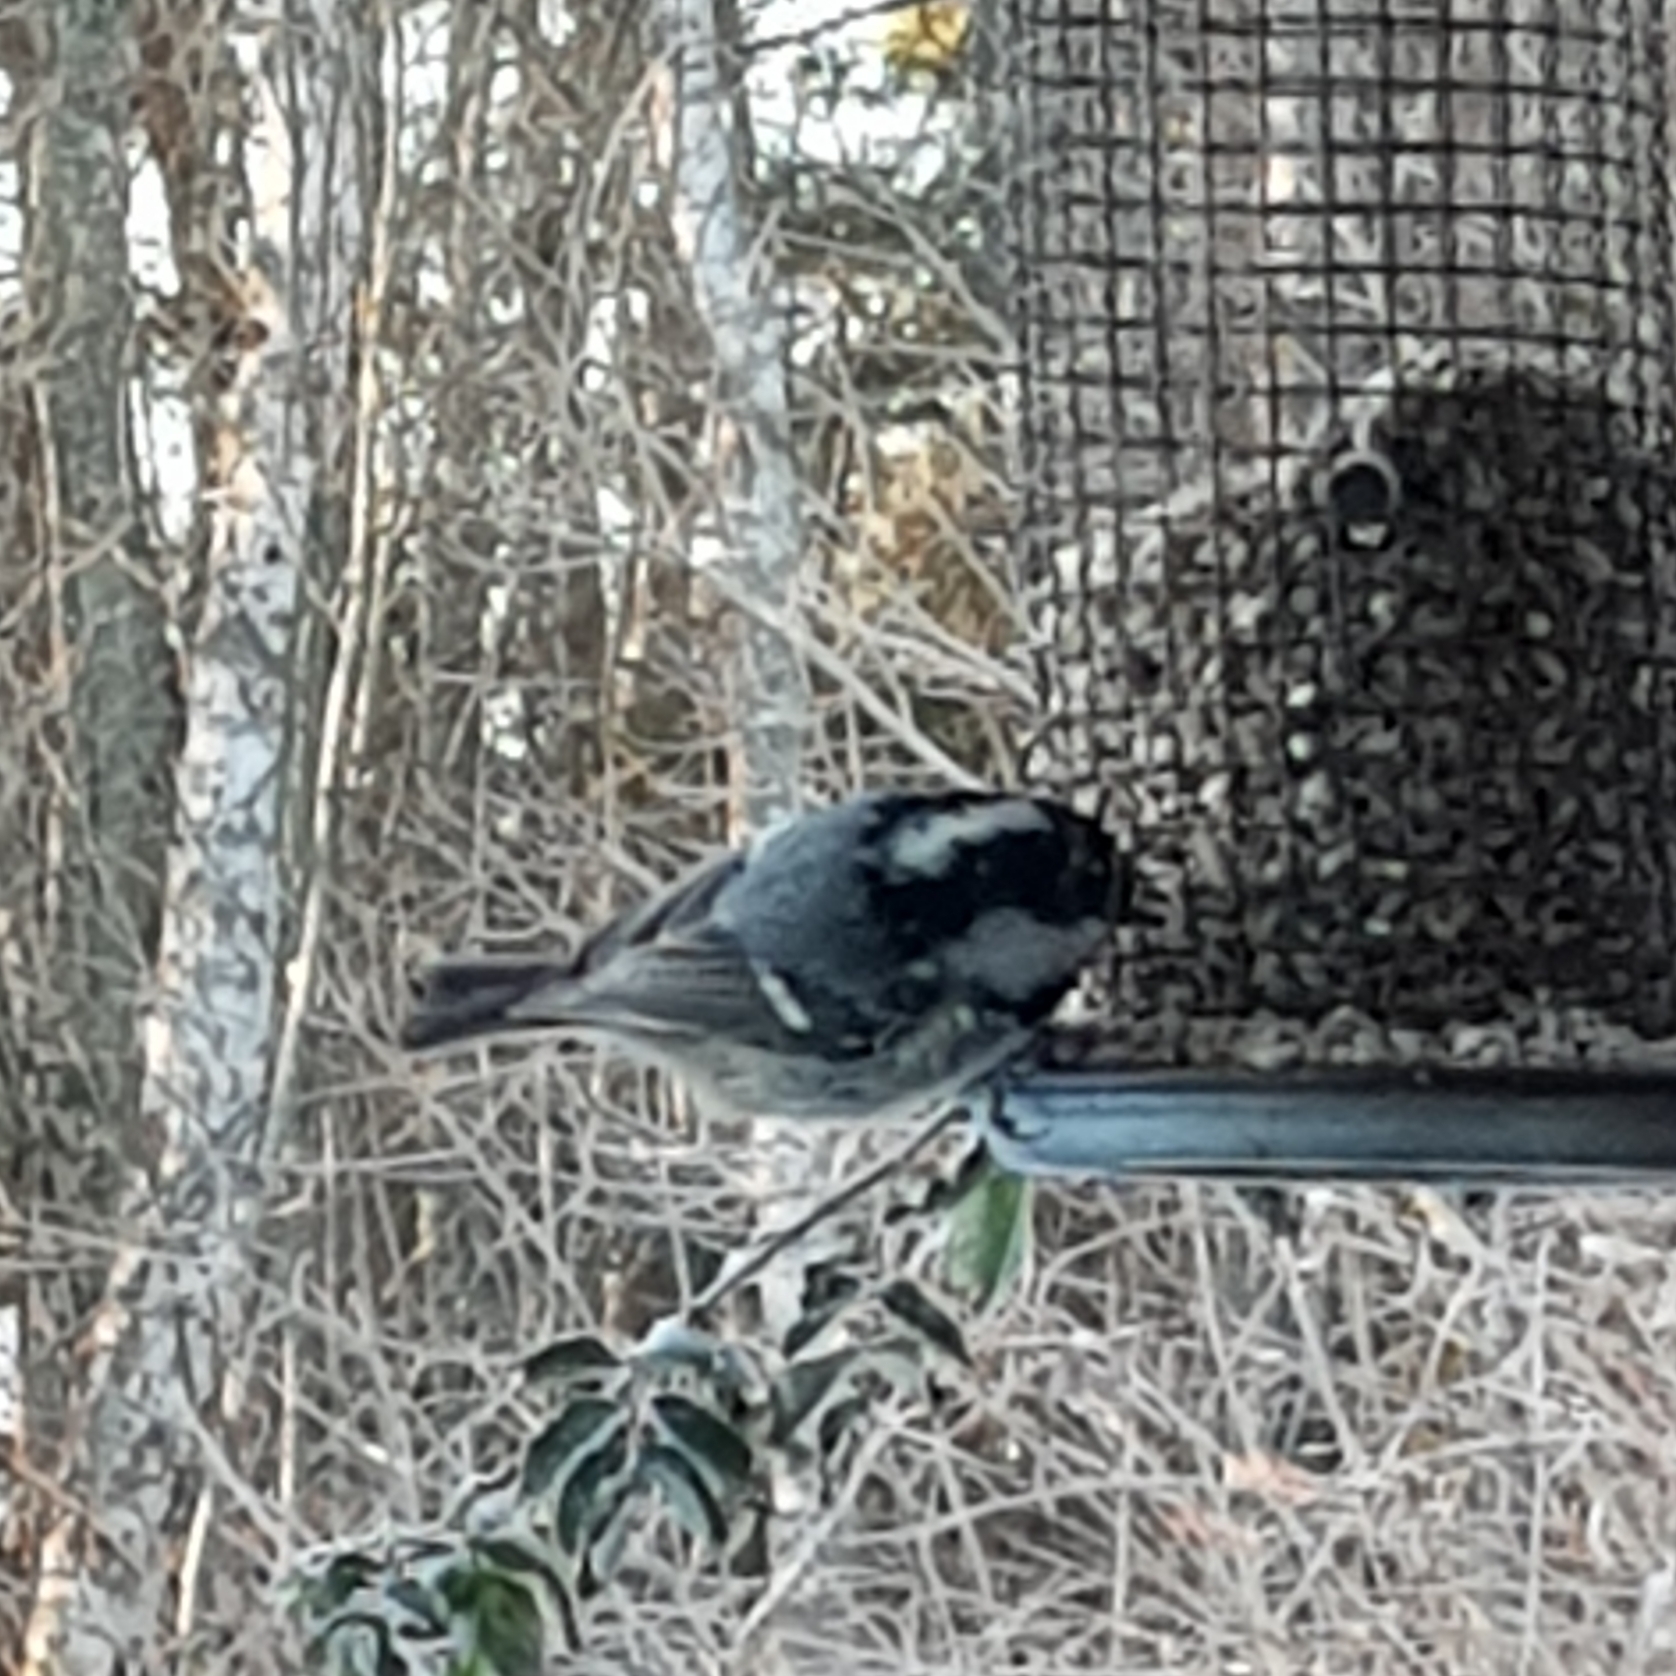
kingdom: Animalia
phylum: Chordata
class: Aves
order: Passeriformes
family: Paridae
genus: Periparus
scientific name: Periparus ater
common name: Coal tit
